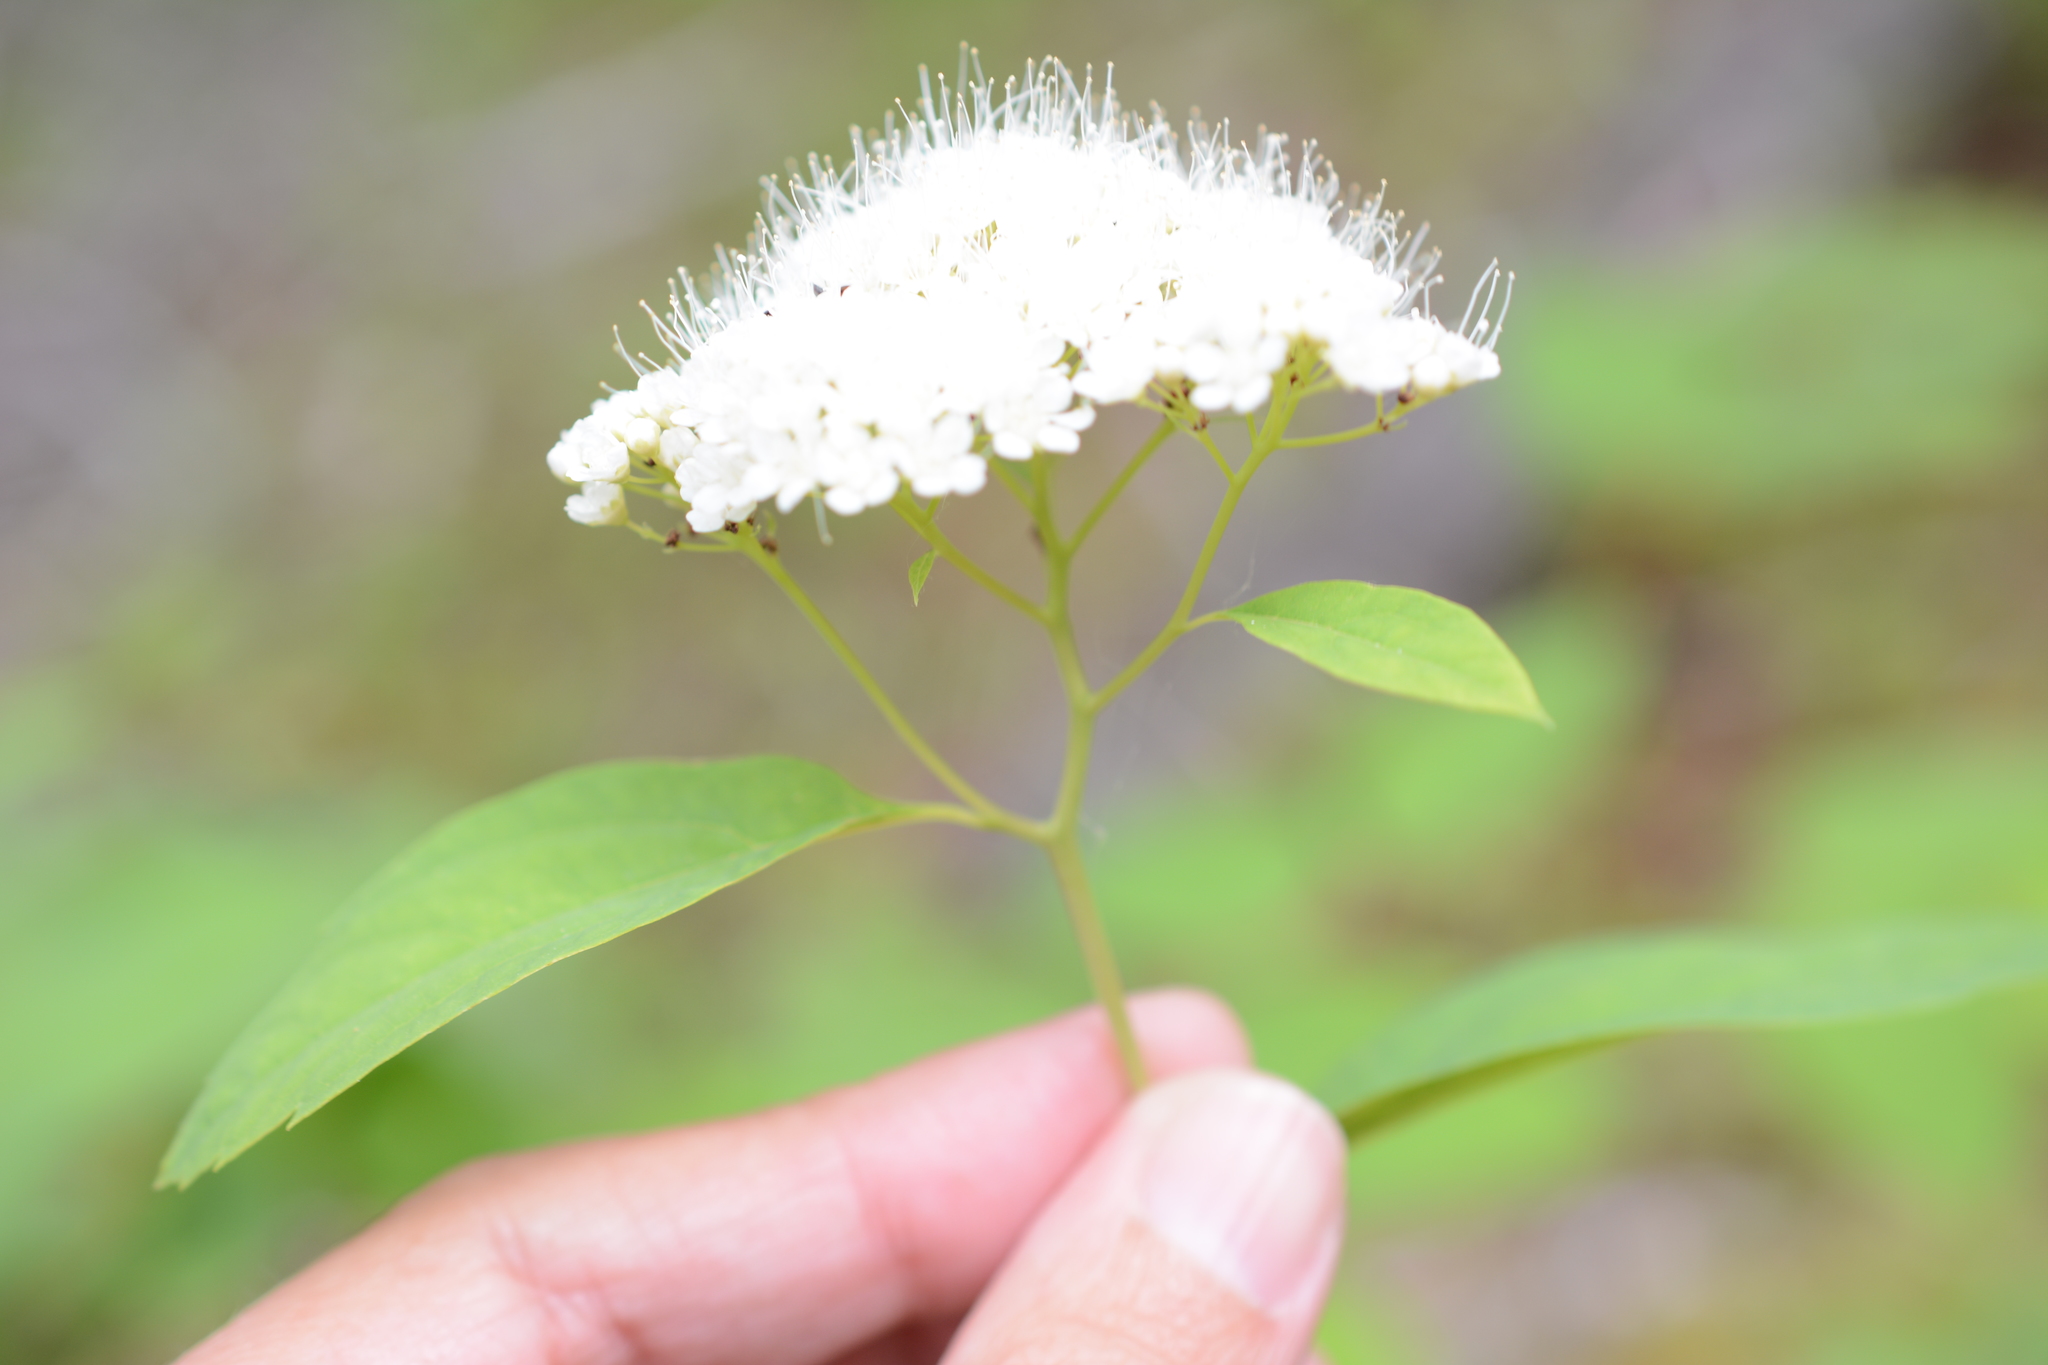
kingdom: Plantae
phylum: Tracheophyta
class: Magnoliopsida
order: Rosales
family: Rosaceae
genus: Spiraea
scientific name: Spiraea lucida
